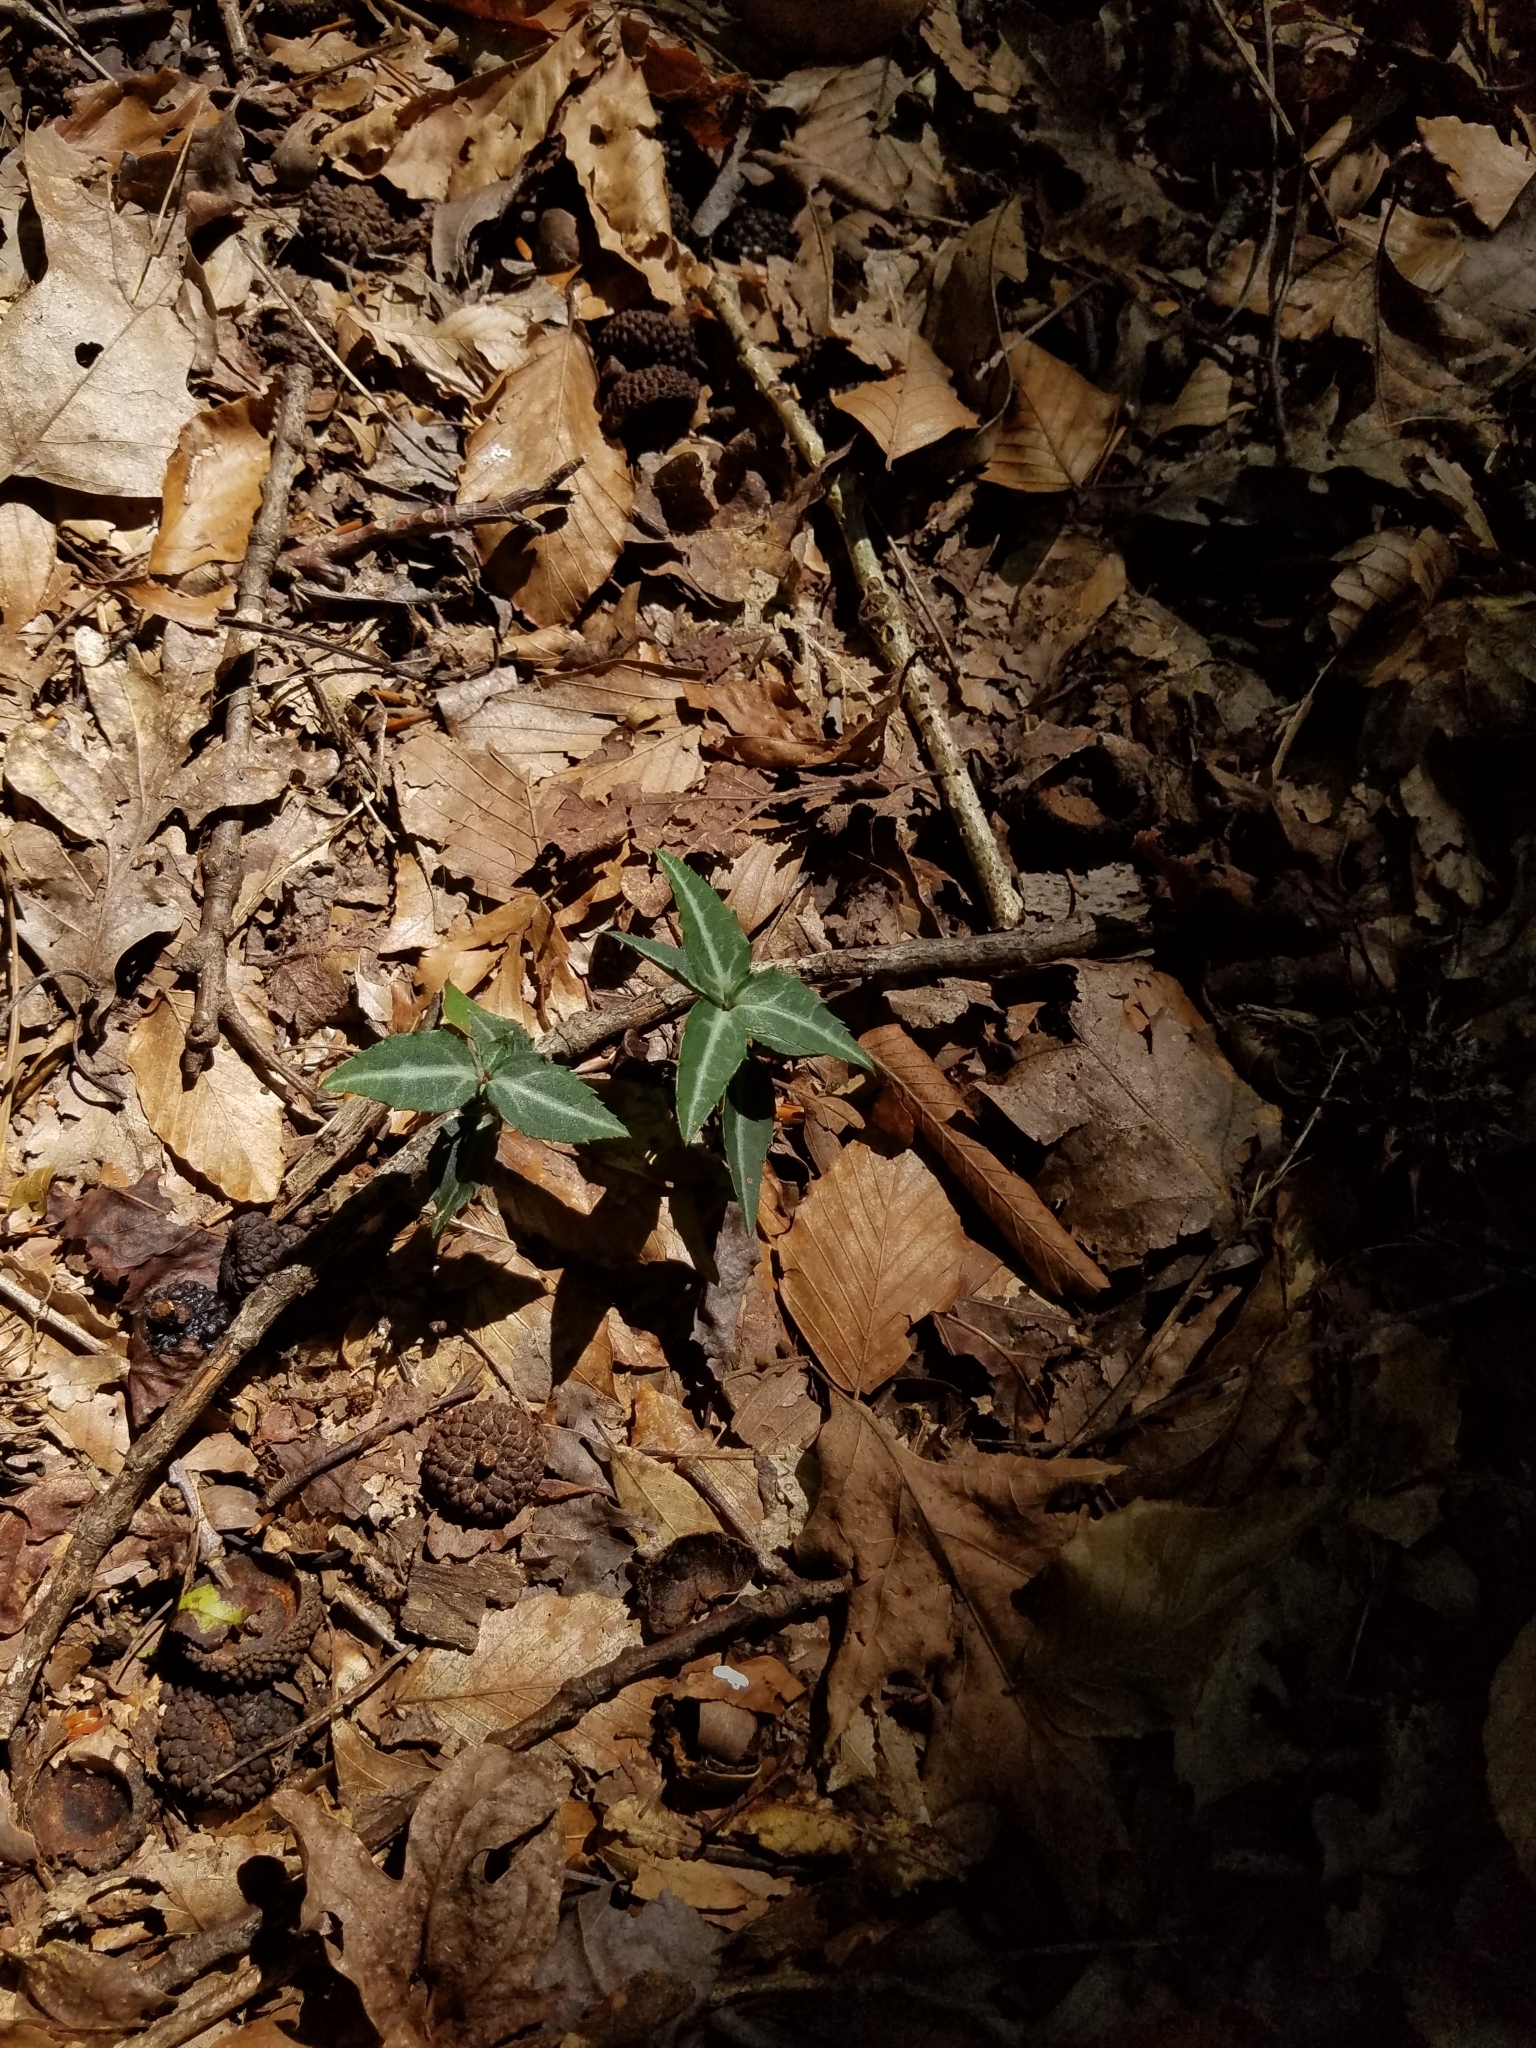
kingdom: Plantae
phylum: Tracheophyta
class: Magnoliopsida
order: Ericales
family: Ericaceae
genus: Chimaphila
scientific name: Chimaphila maculata
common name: Spotted pipsissewa
